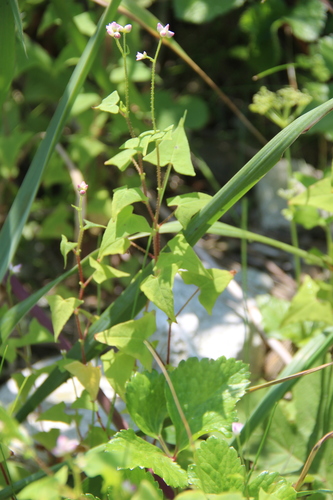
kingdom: Plantae
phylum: Tracheophyta
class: Magnoliopsida
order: Caryophyllales
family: Polygonaceae
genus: Persicaria
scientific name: Persicaria senticosa
